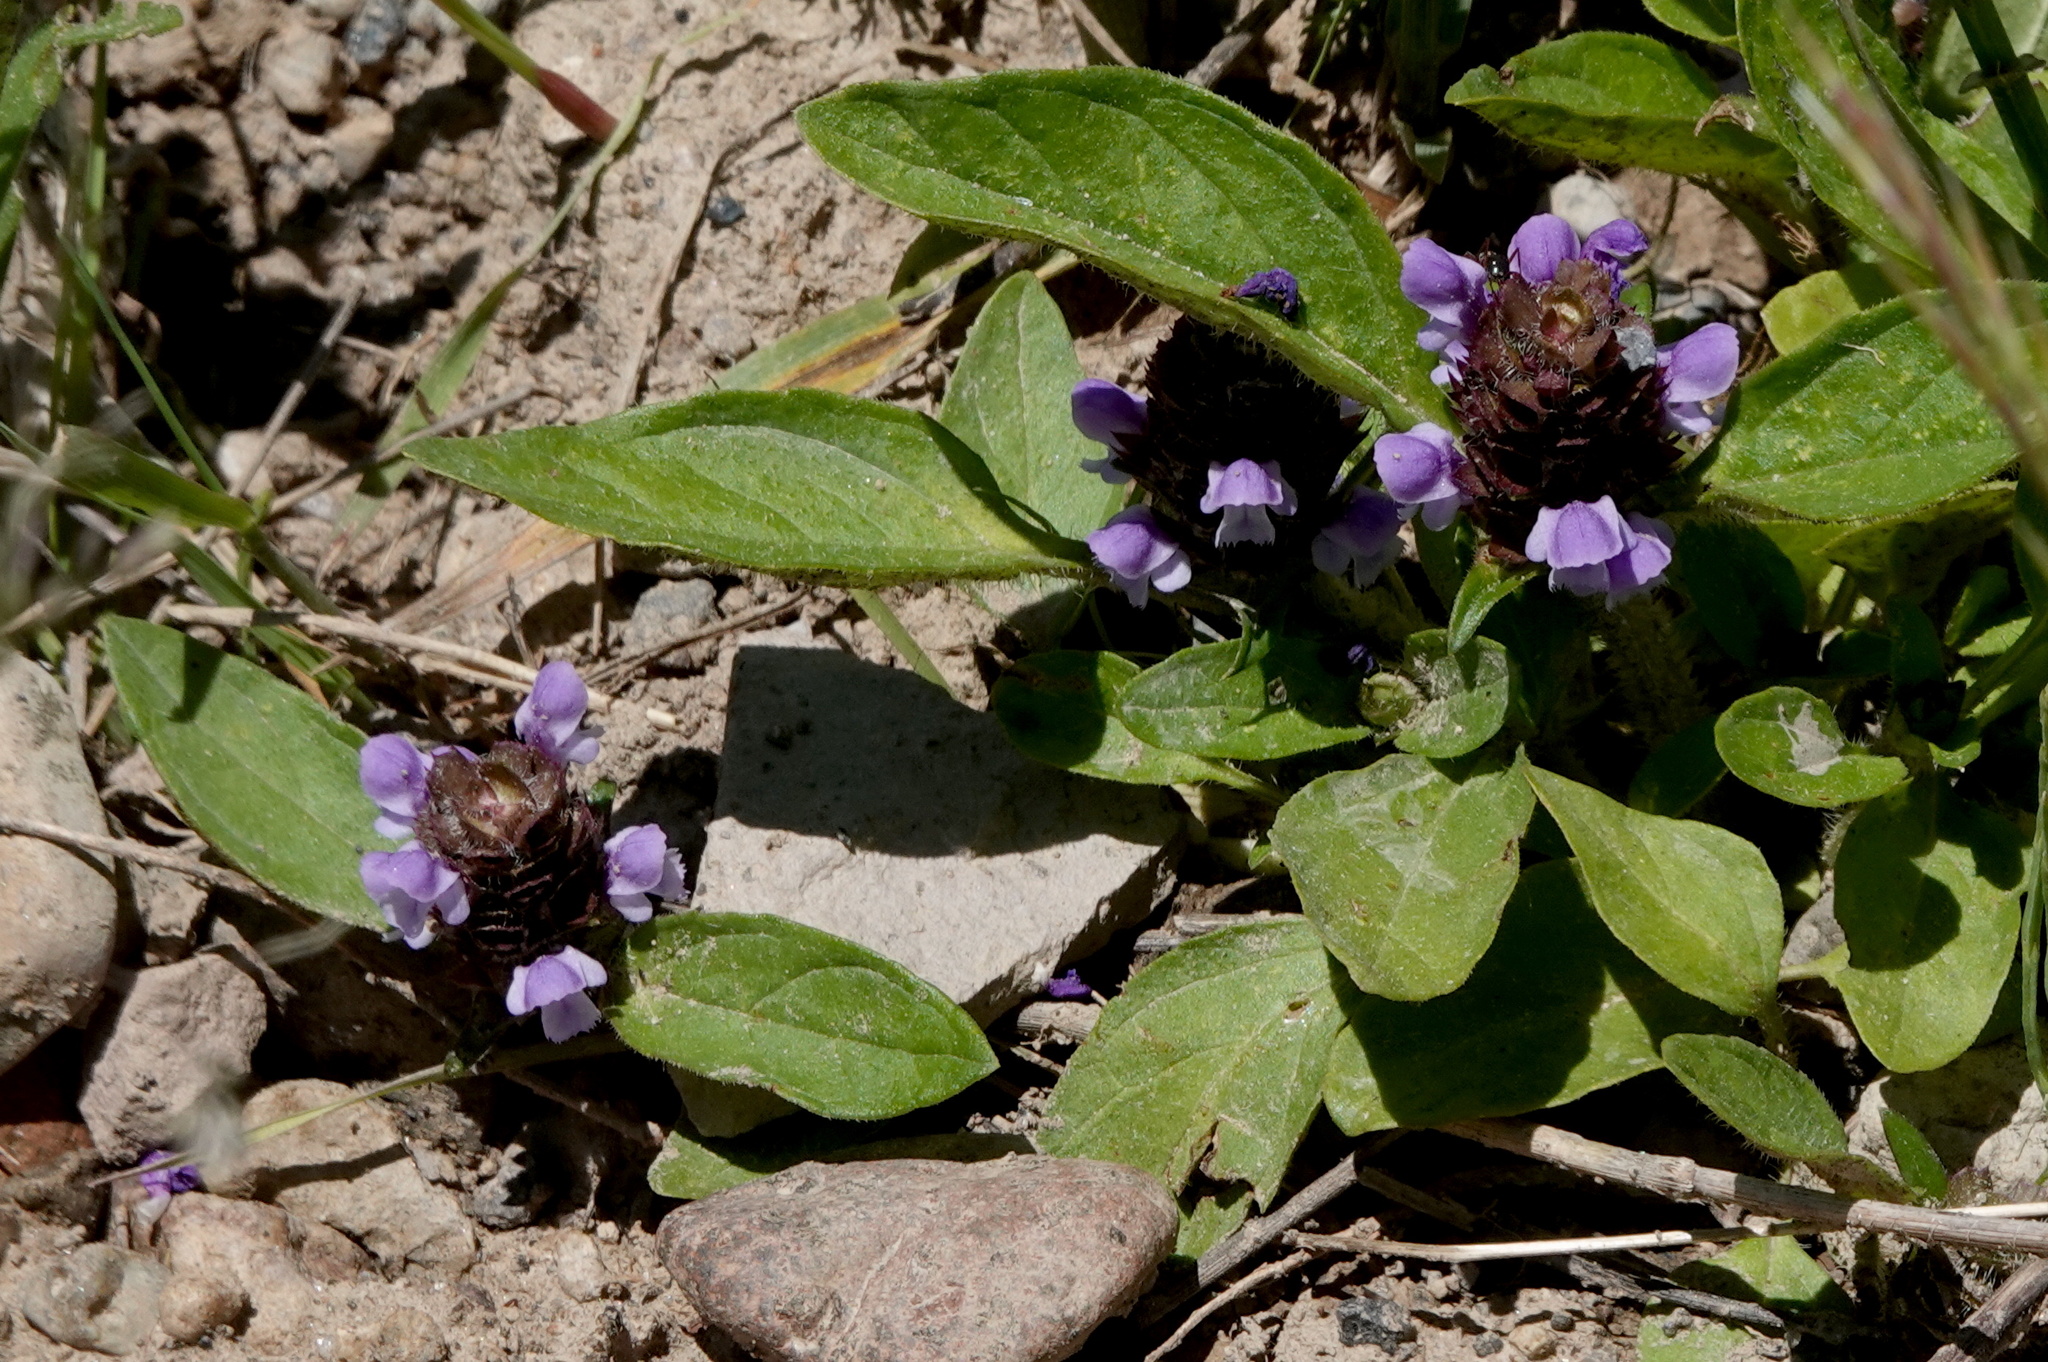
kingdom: Plantae
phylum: Tracheophyta
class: Magnoliopsida
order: Lamiales
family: Lamiaceae
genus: Prunella
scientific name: Prunella vulgaris
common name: Heal-all
